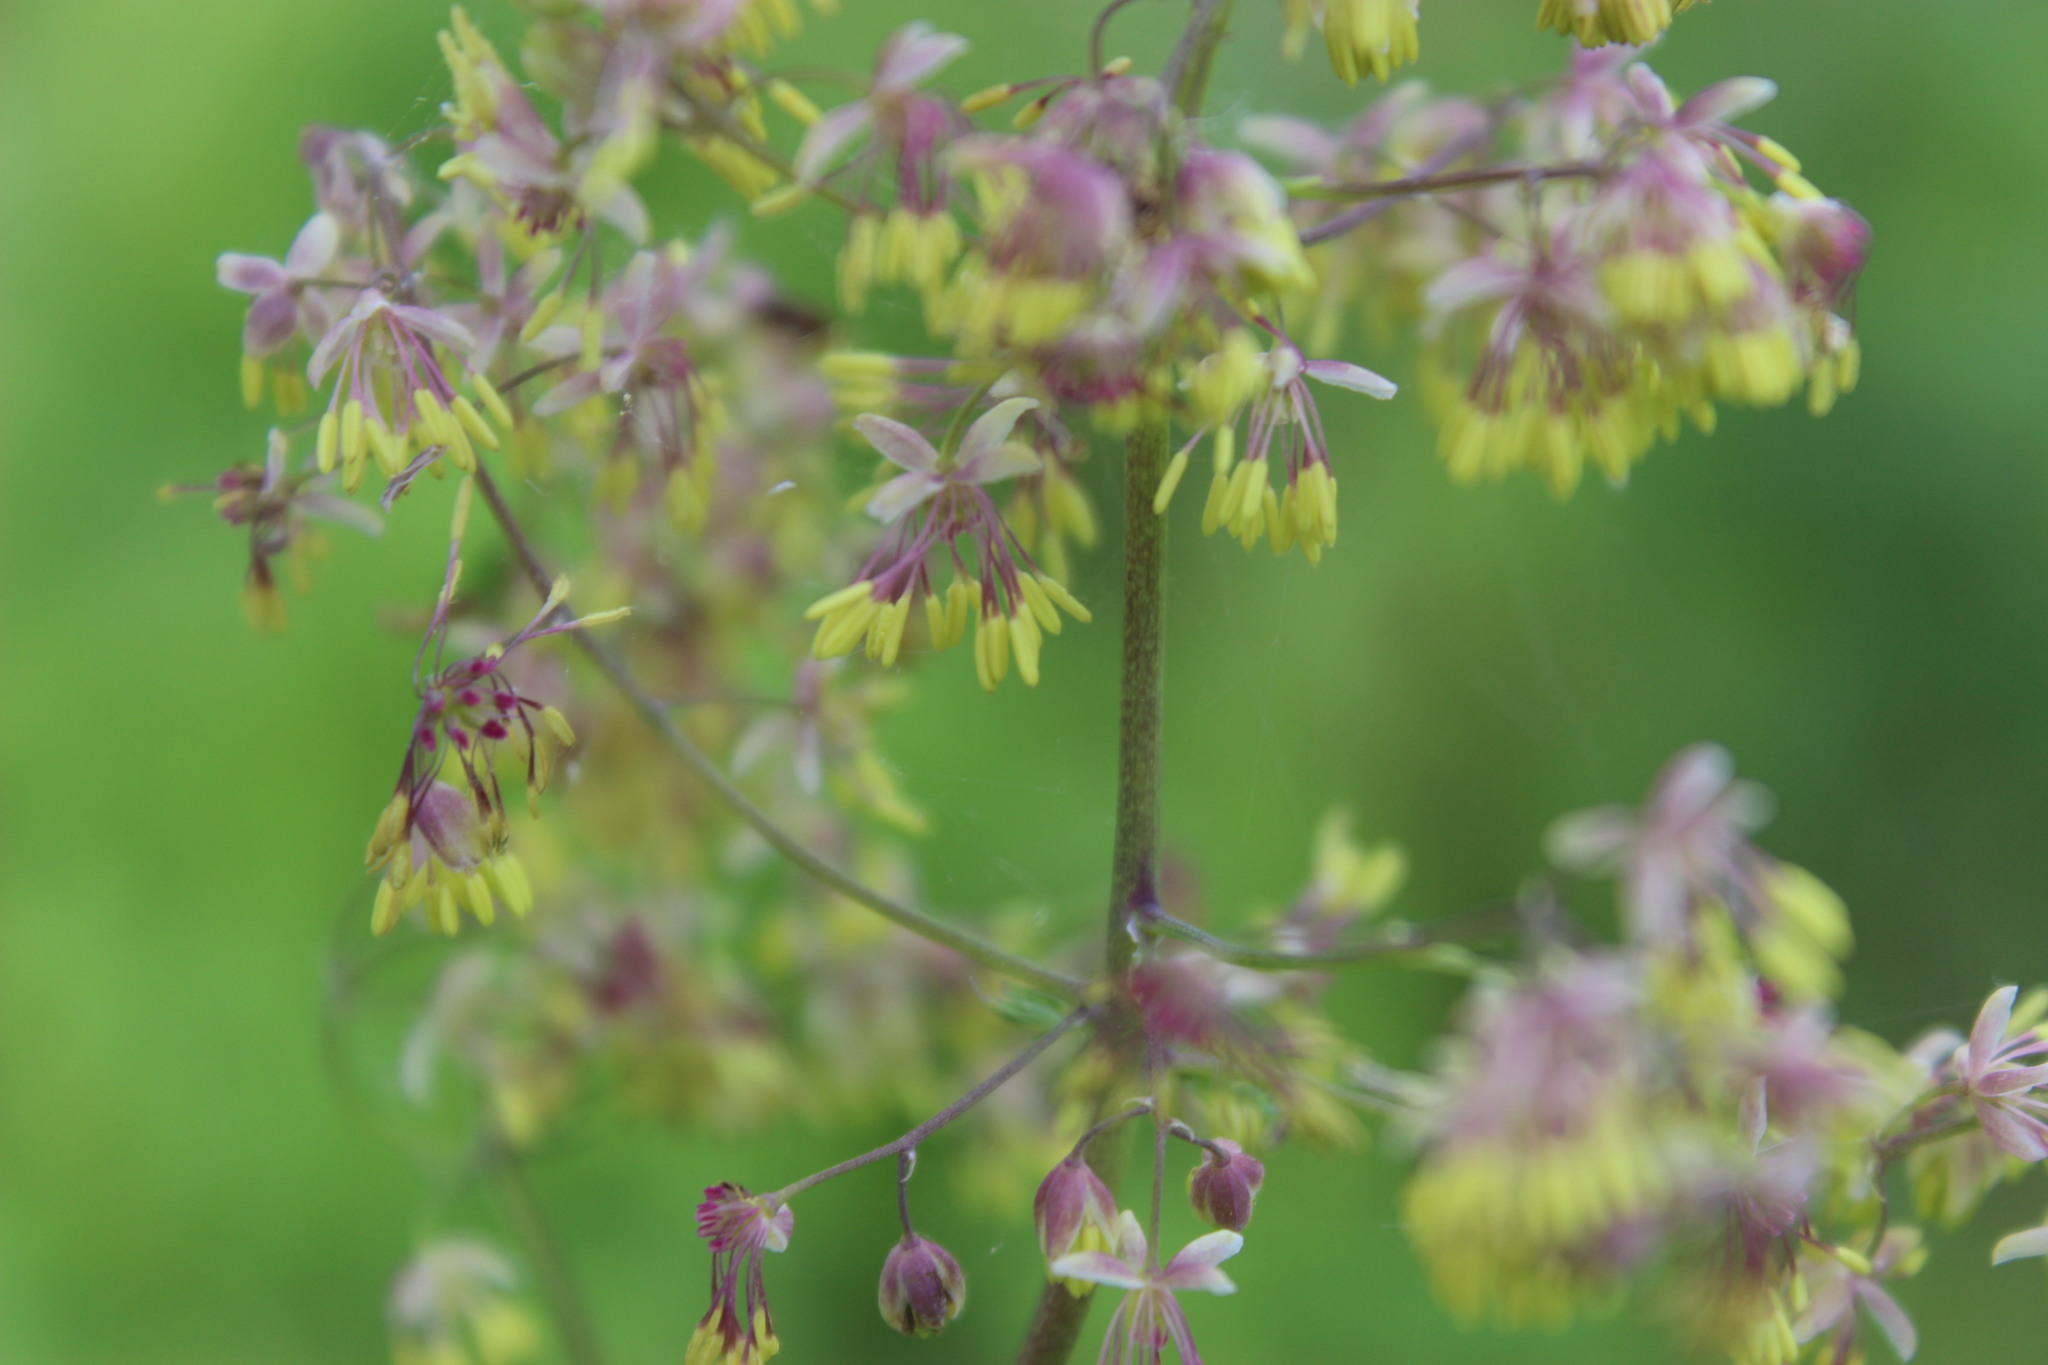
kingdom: Plantae
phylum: Tracheophyta
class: Magnoliopsida
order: Ranunculales
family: Ranunculaceae
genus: Thalictrum
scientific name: Thalictrum minus
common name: Lesser meadow-rue
